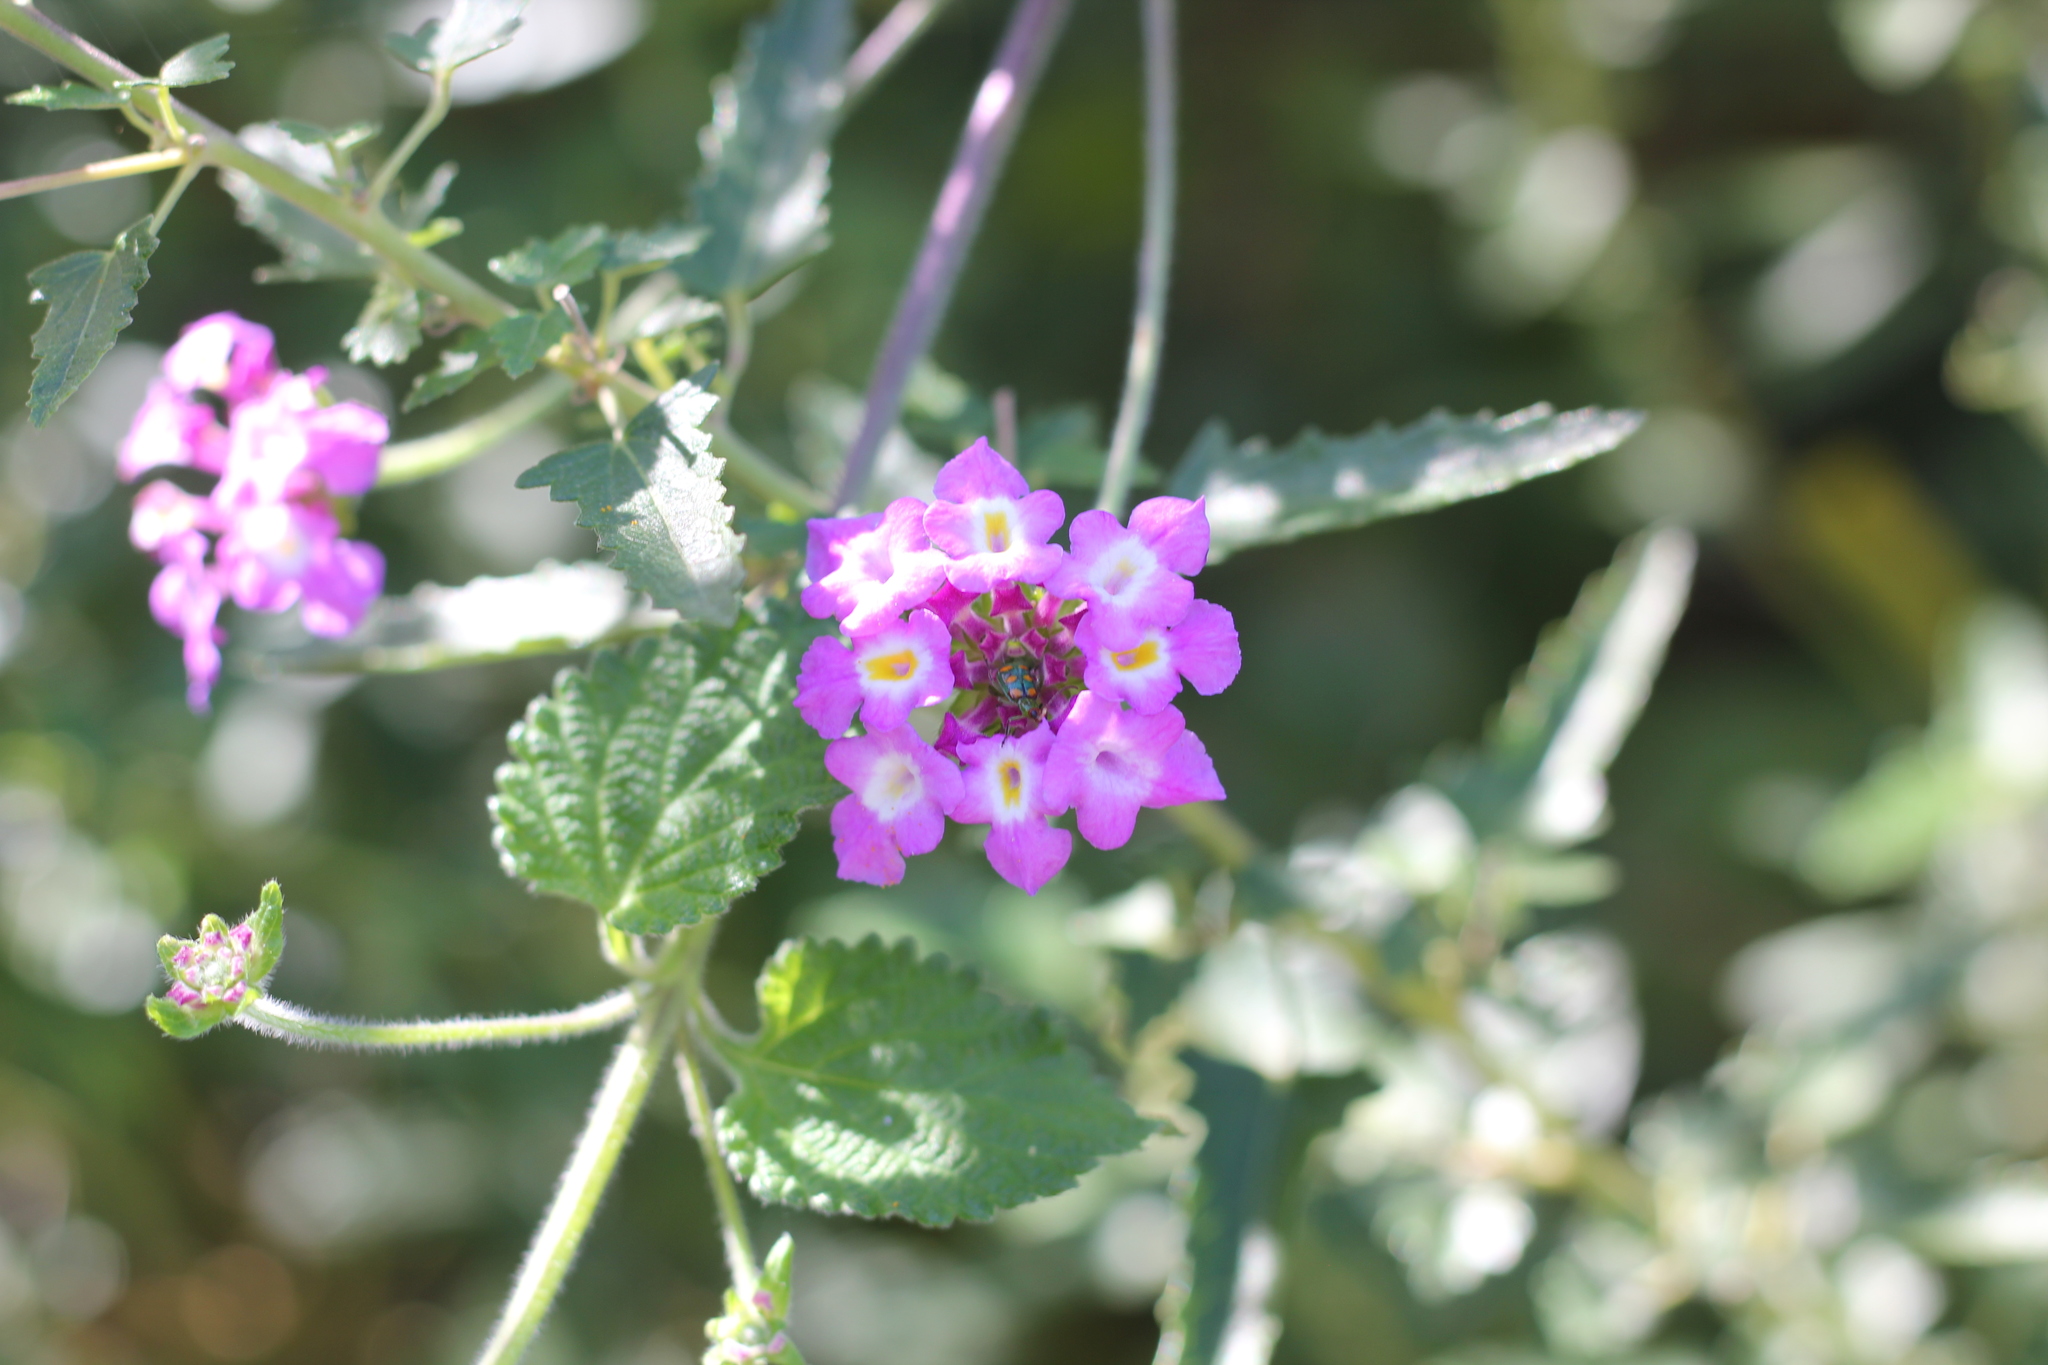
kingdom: Animalia
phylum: Arthropoda
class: Insecta
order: Coleoptera
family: Chrysomelidae
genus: Diabrotica
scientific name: Diabrotica speciosa
